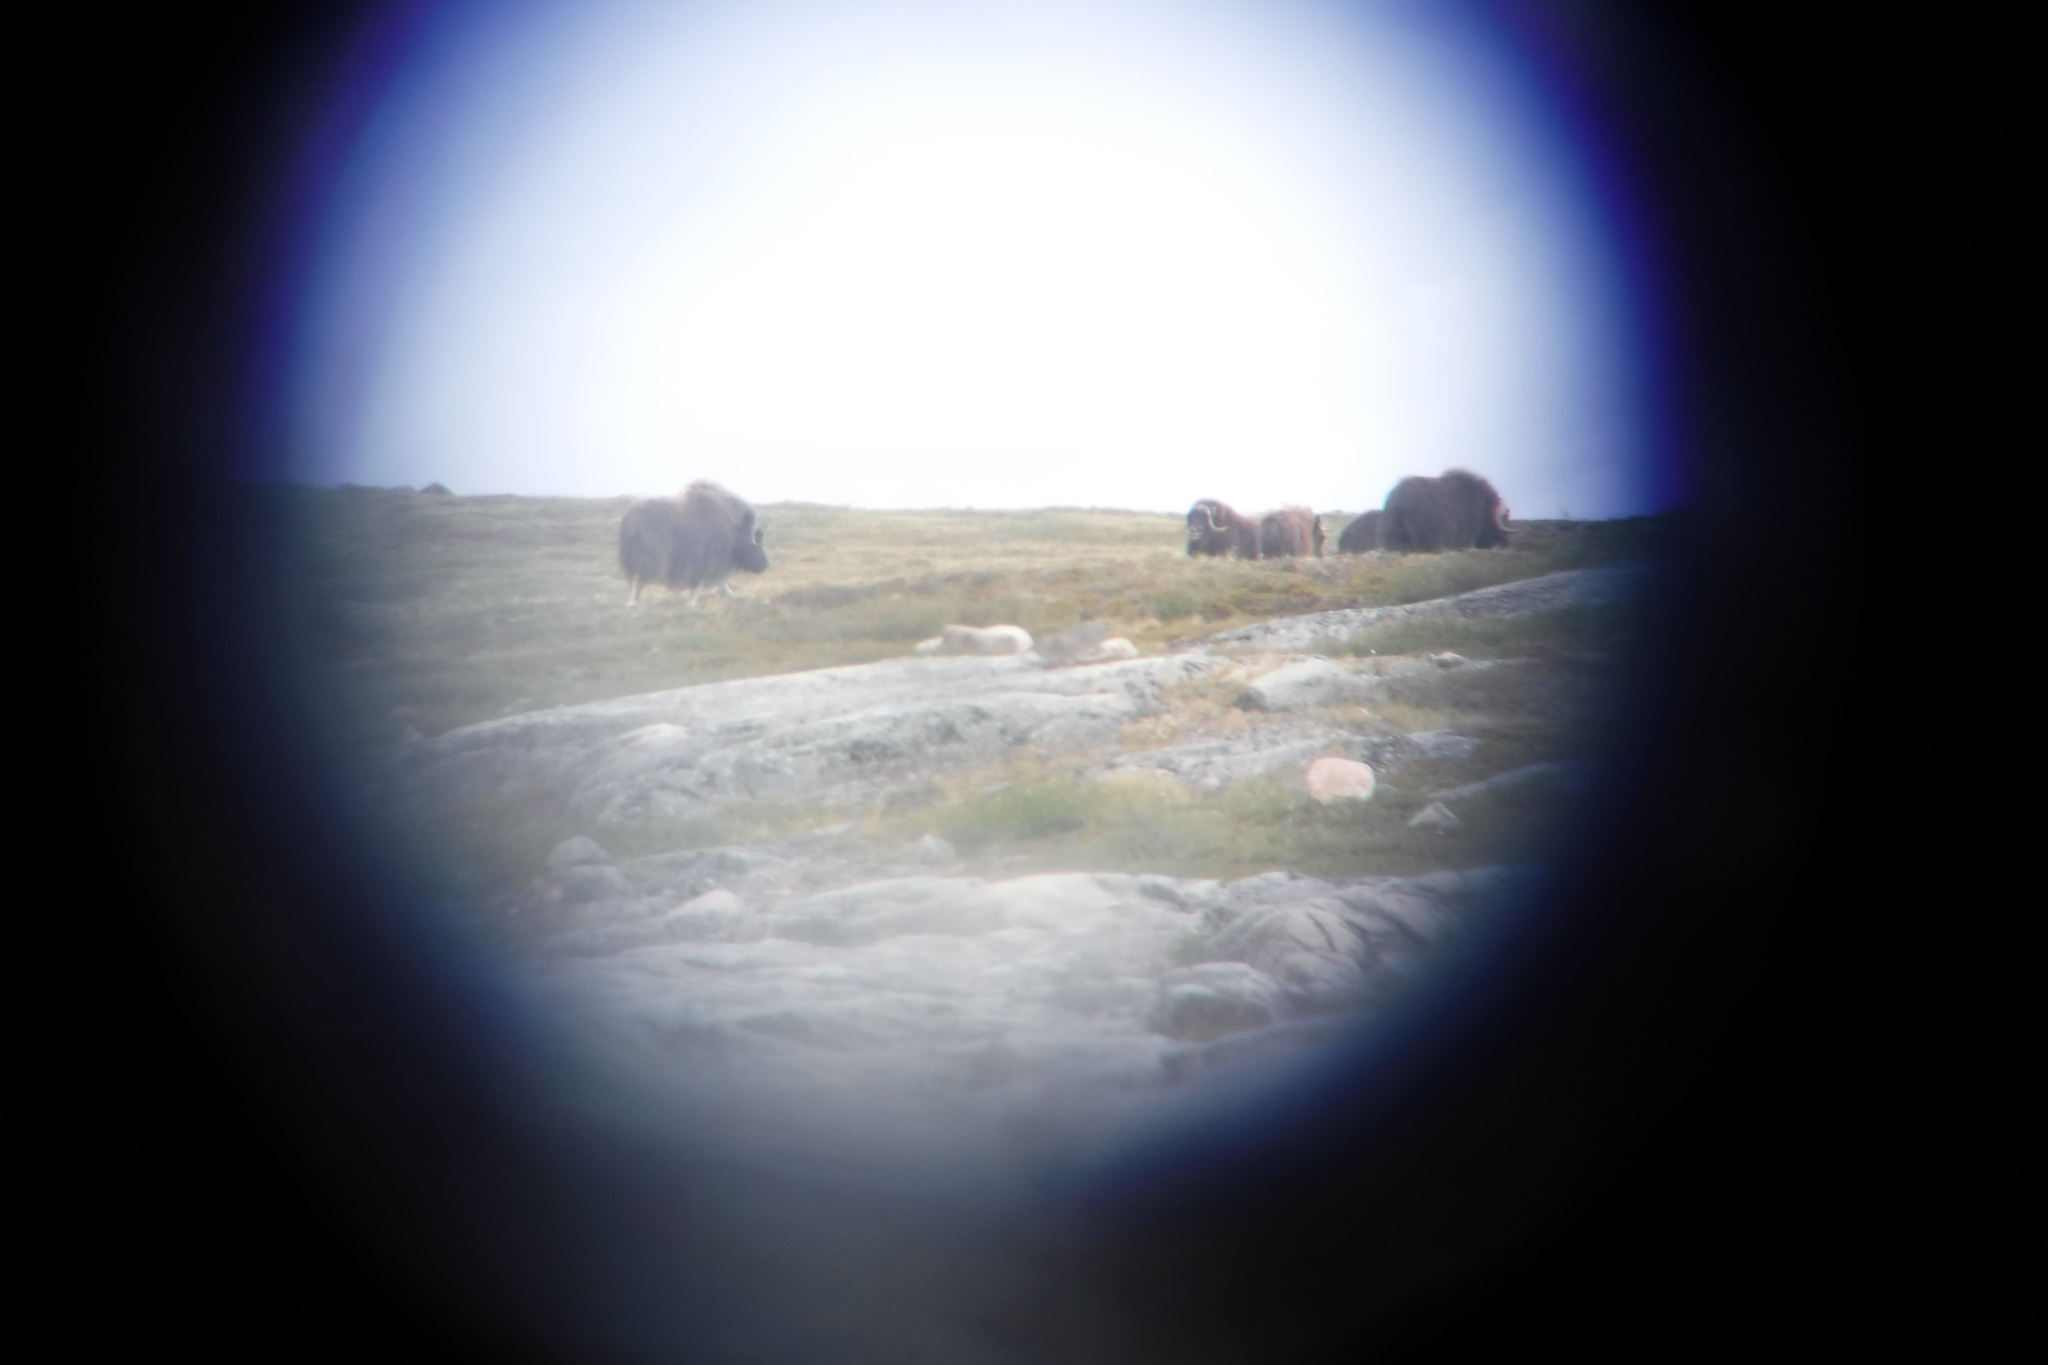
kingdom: Animalia
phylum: Chordata
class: Mammalia
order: Artiodactyla
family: Bovidae
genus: Ovibos
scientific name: Ovibos moschatus
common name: Muskox
